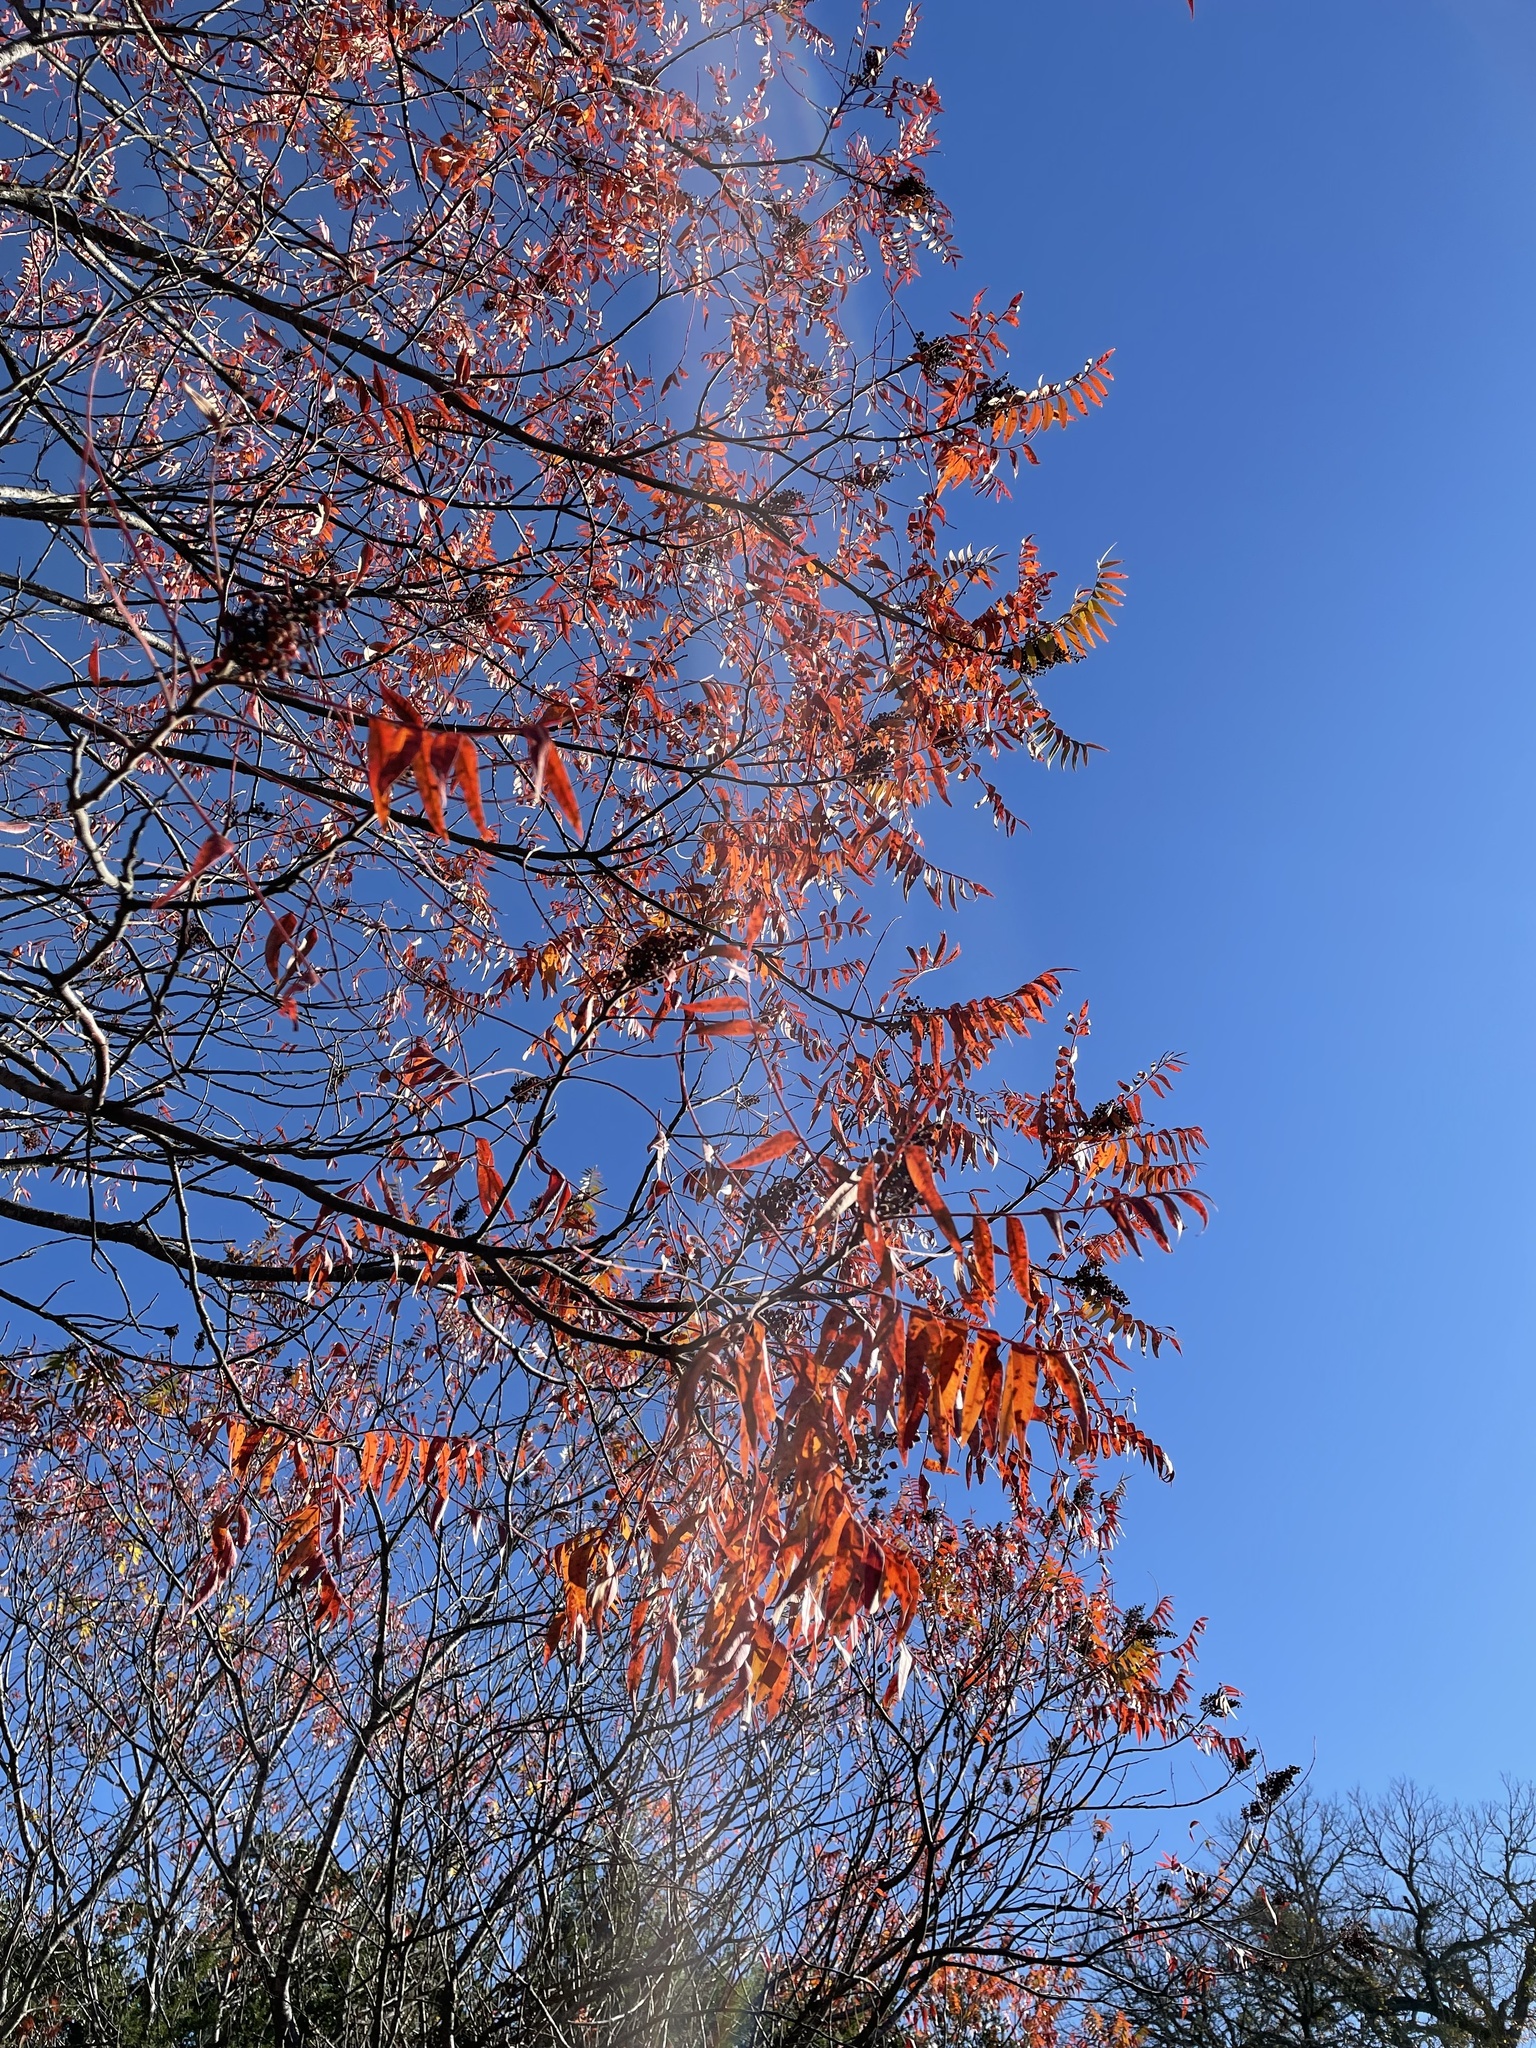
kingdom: Plantae
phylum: Tracheophyta
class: Magnoliopsida
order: Sapindales
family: Anacardiaceae
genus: Rhus
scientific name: Rhus lanceolata
